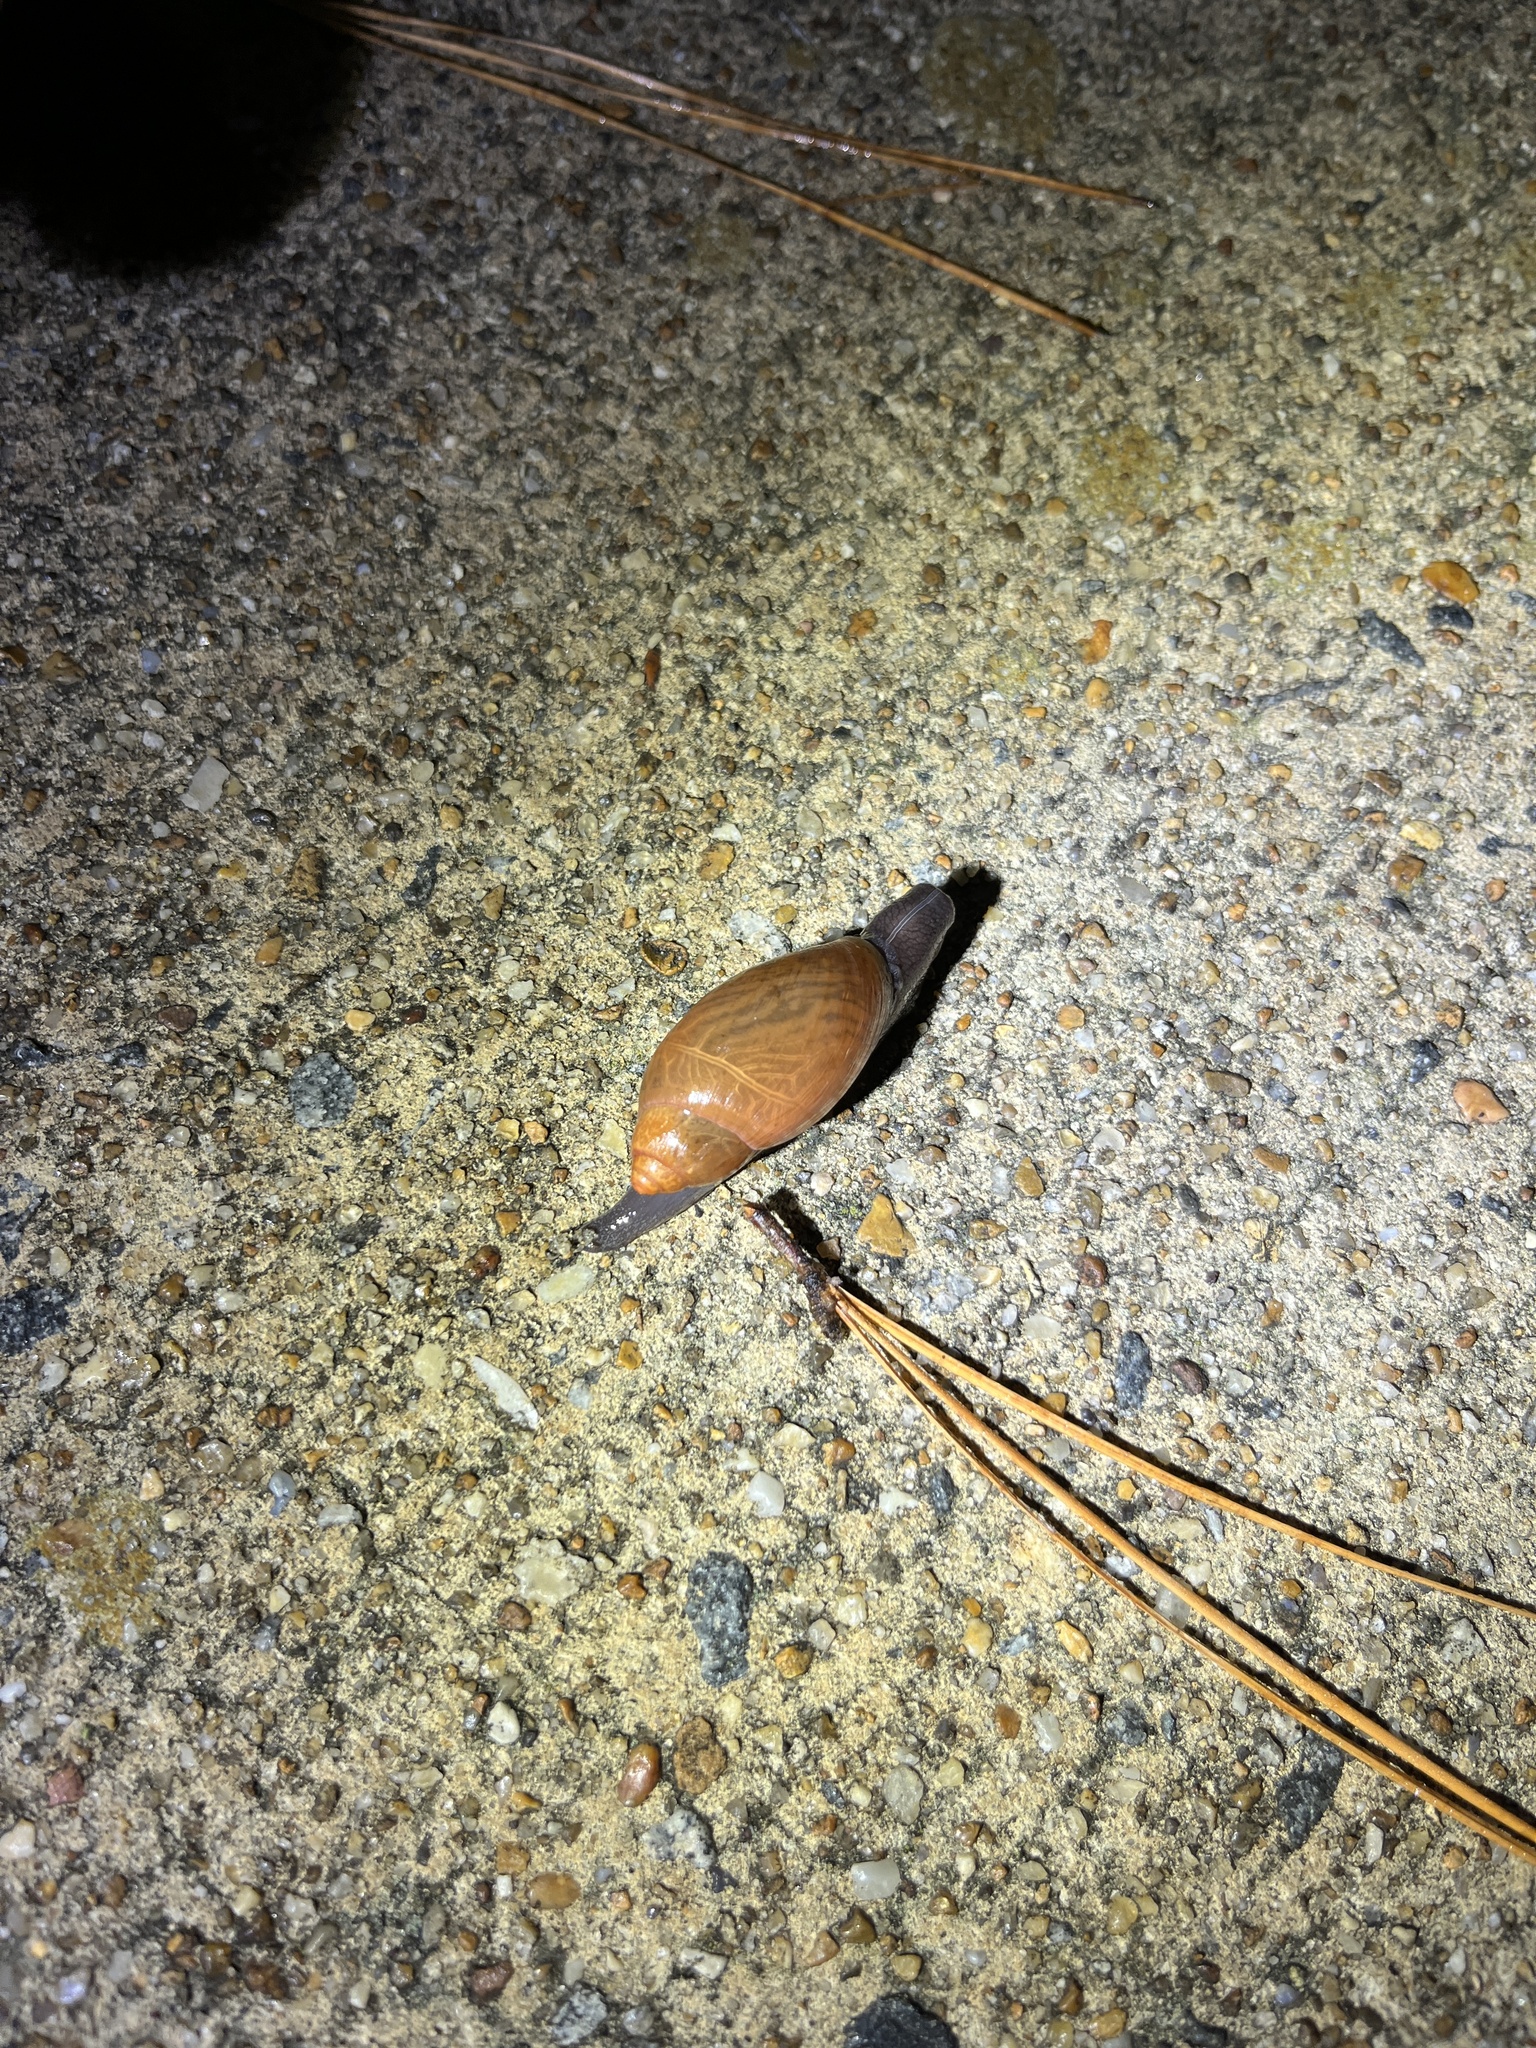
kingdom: Animalia
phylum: Mollusca
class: Gastropoda
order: Stylommatophora
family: Spiraxidae
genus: Euglandina
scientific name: Euglandina rosea
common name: Rosy wolfsnail
